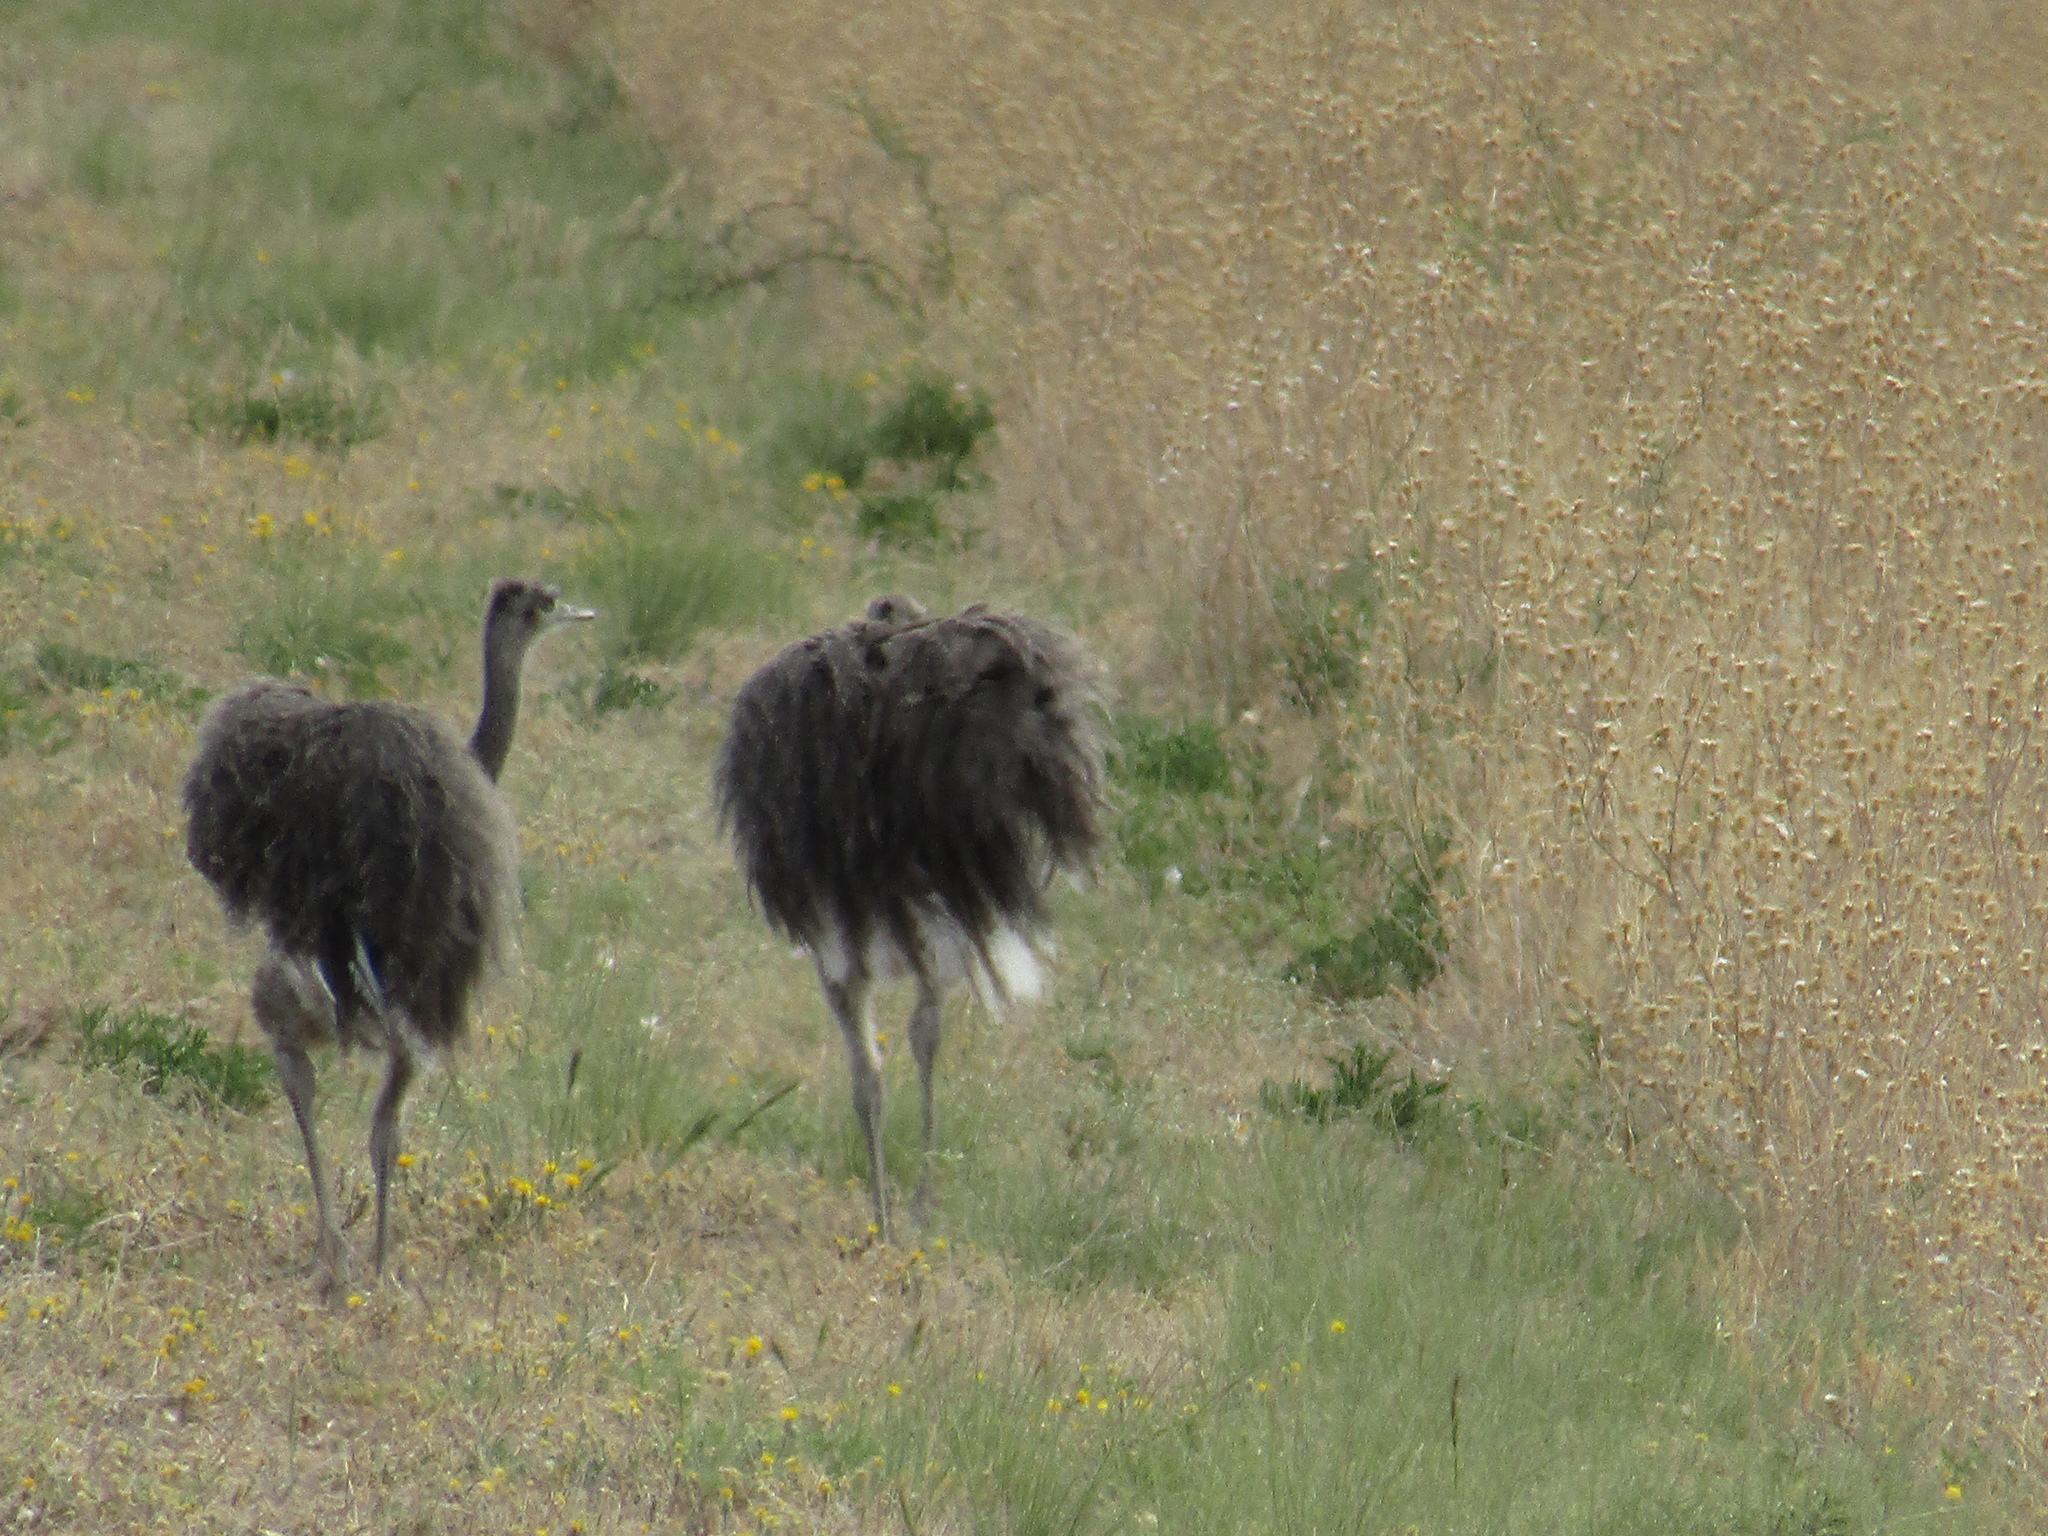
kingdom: Animalia
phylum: Chordata
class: Aves
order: Rheiformes
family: Rheidae
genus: Rhea
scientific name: Rhea americana
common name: Greater rhea
